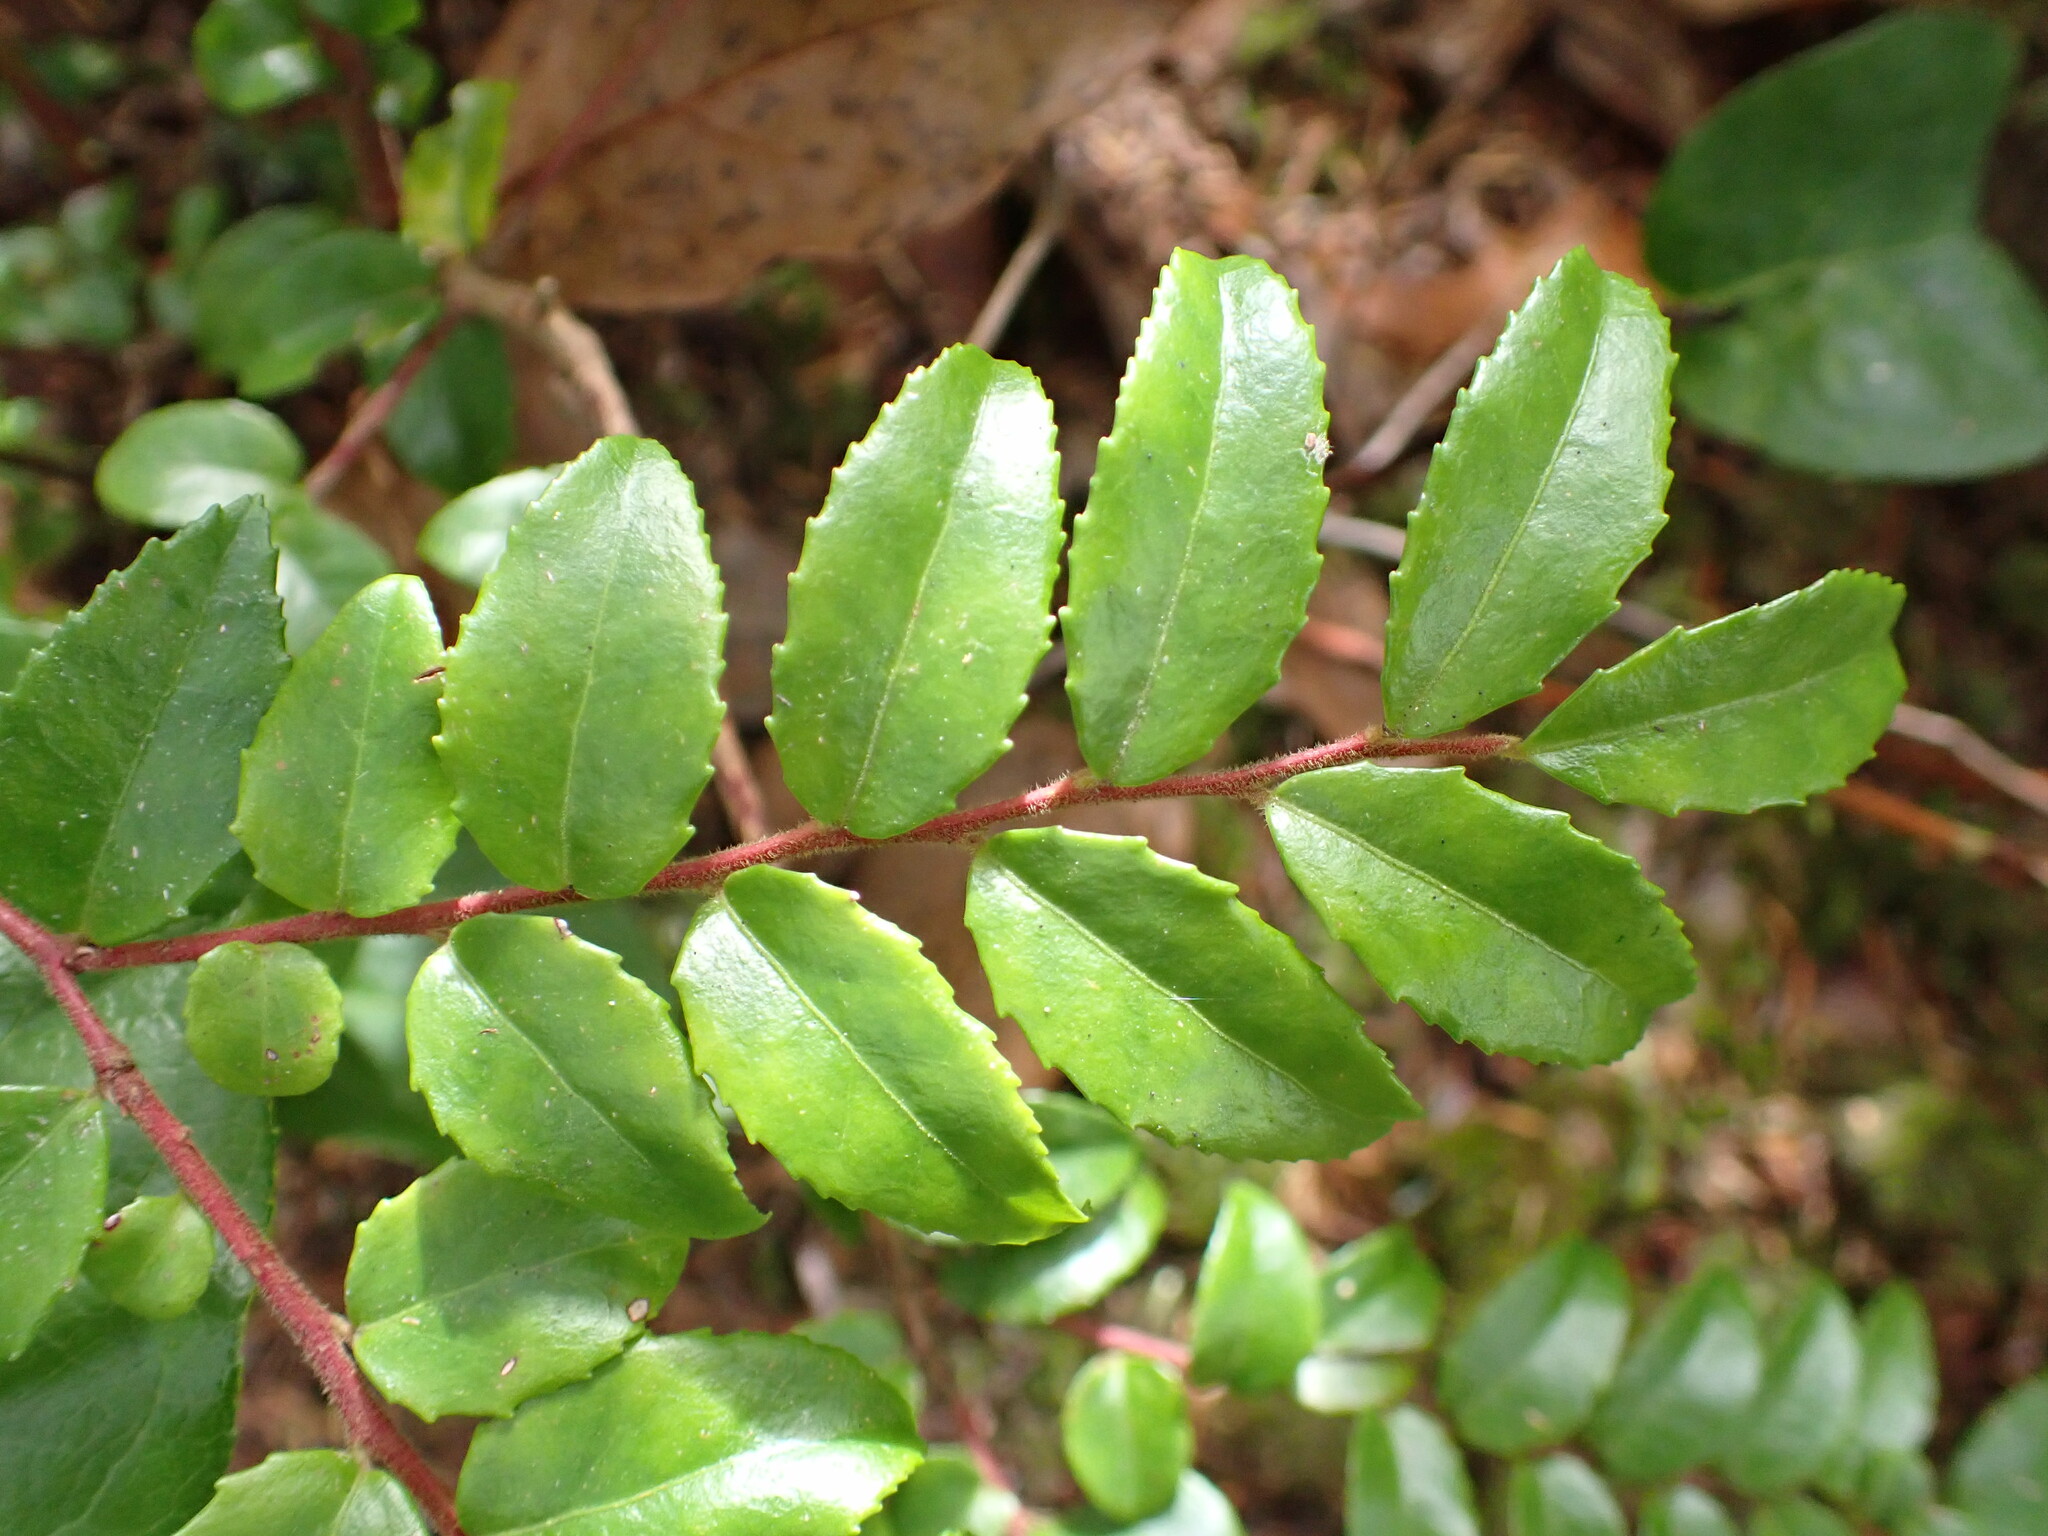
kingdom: Plantae
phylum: Tracheophyta
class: Magnoliopsida
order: Ericales
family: Ericaceae
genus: Vaccinium
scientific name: Vaccinium ovatum
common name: California-huckleberry
